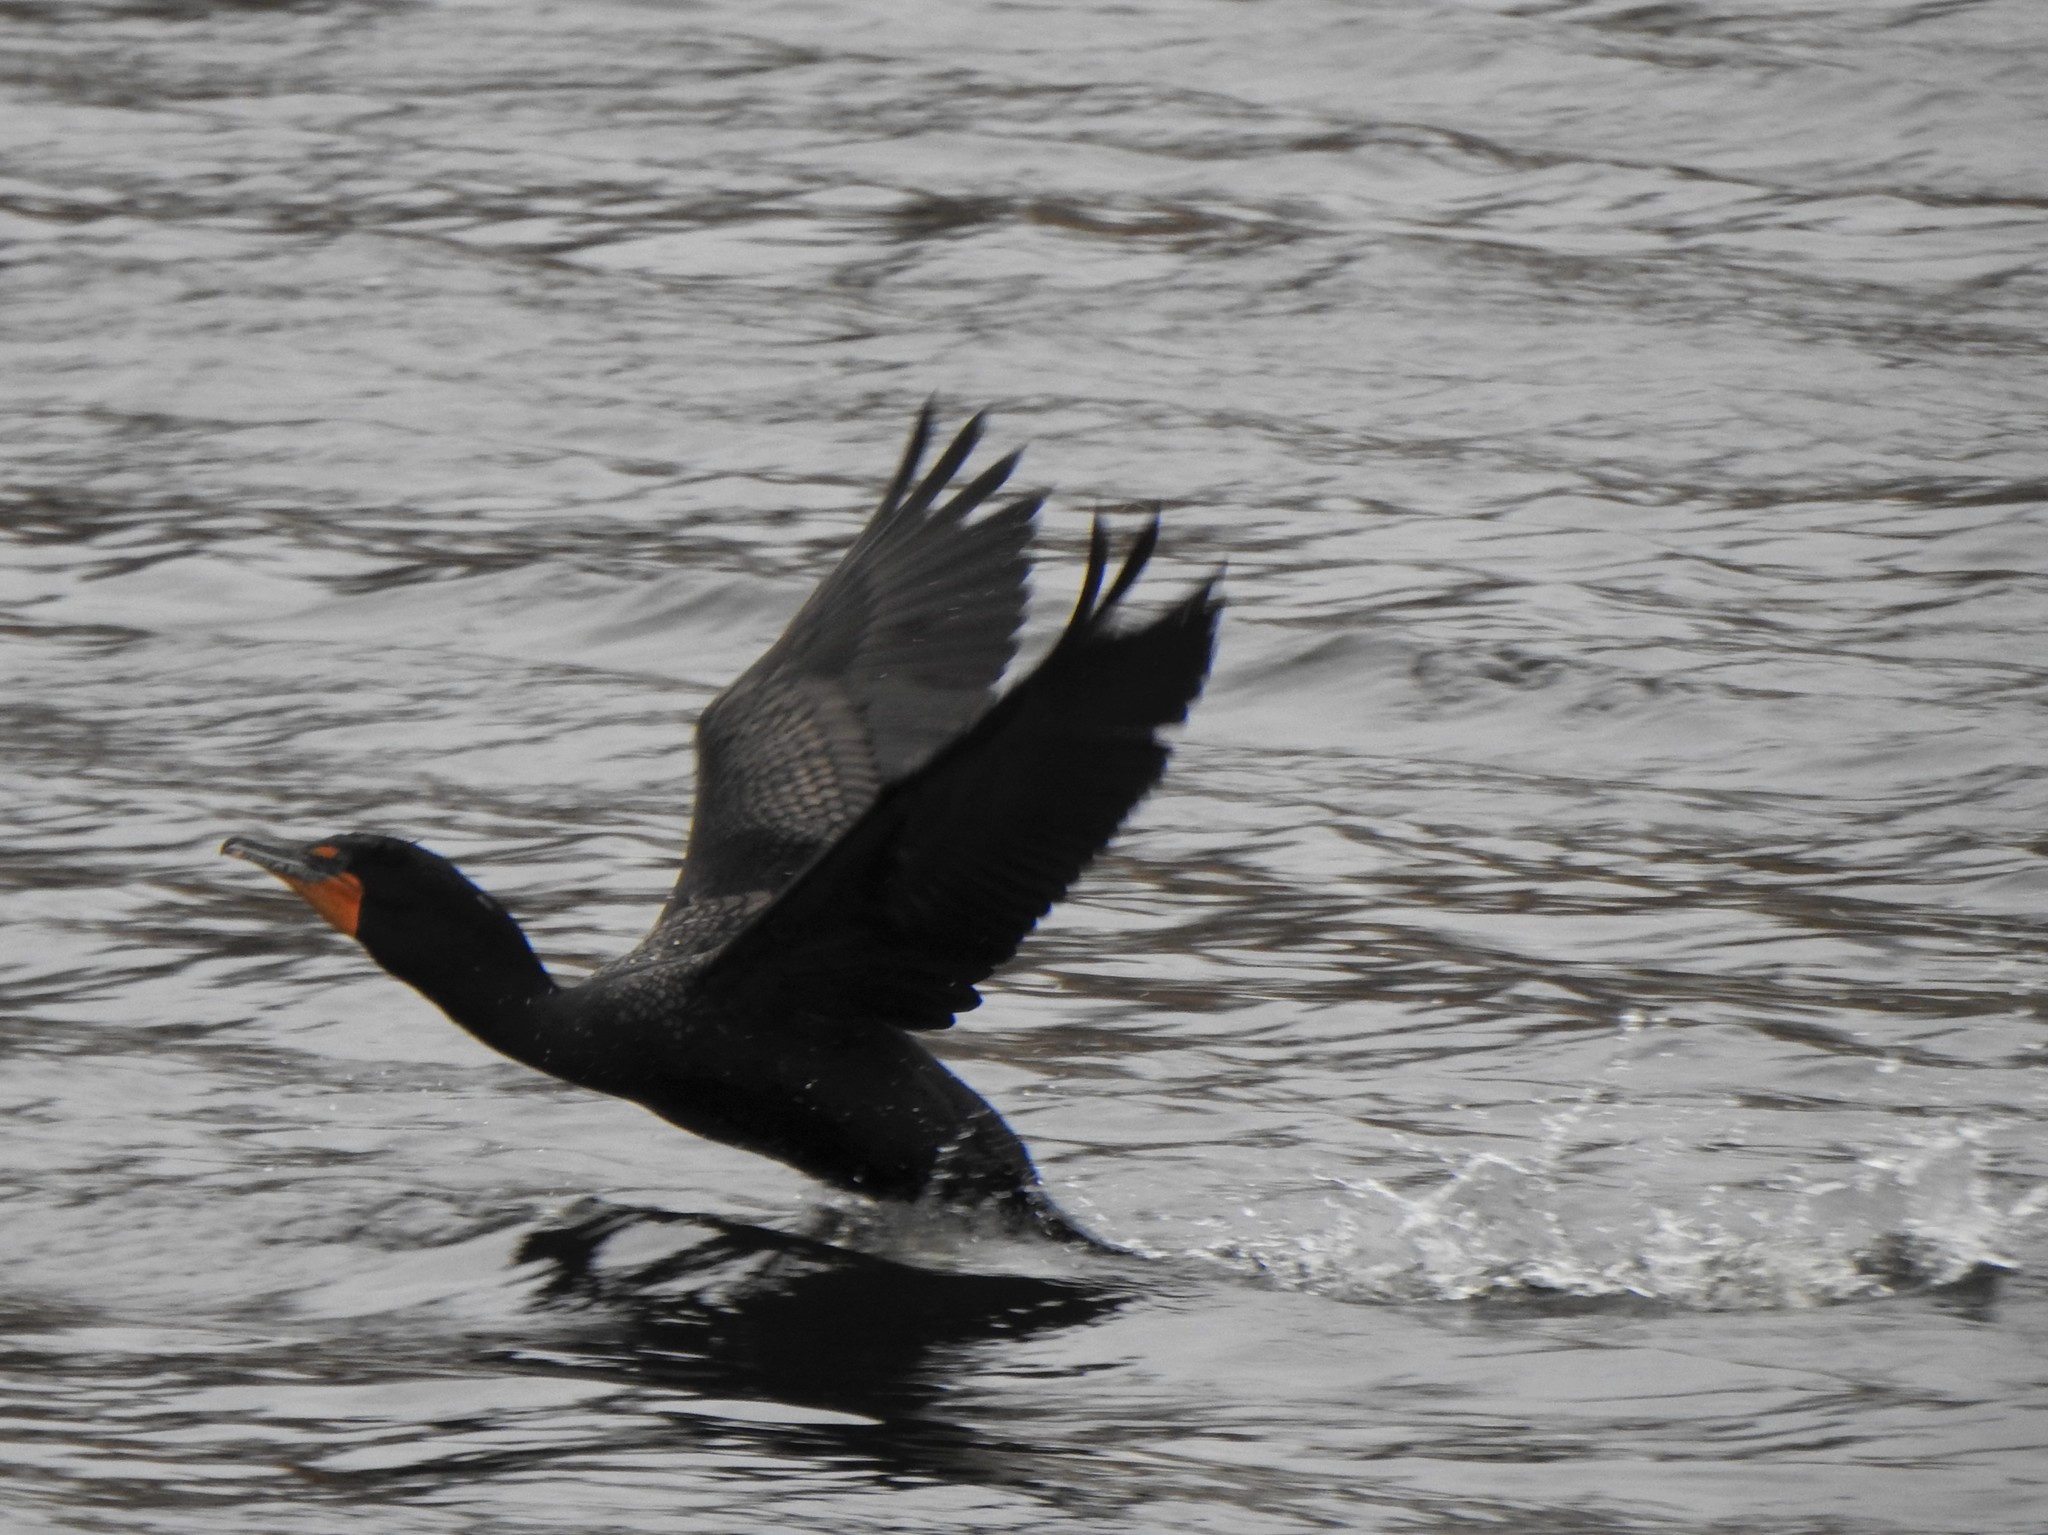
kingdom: Animalia
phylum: Chordata
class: Aves
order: Suliformes
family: Phalacrocoracidae
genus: Phalacrocorax
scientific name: Phalacrocorax auritus
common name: Double-crested cormorant
